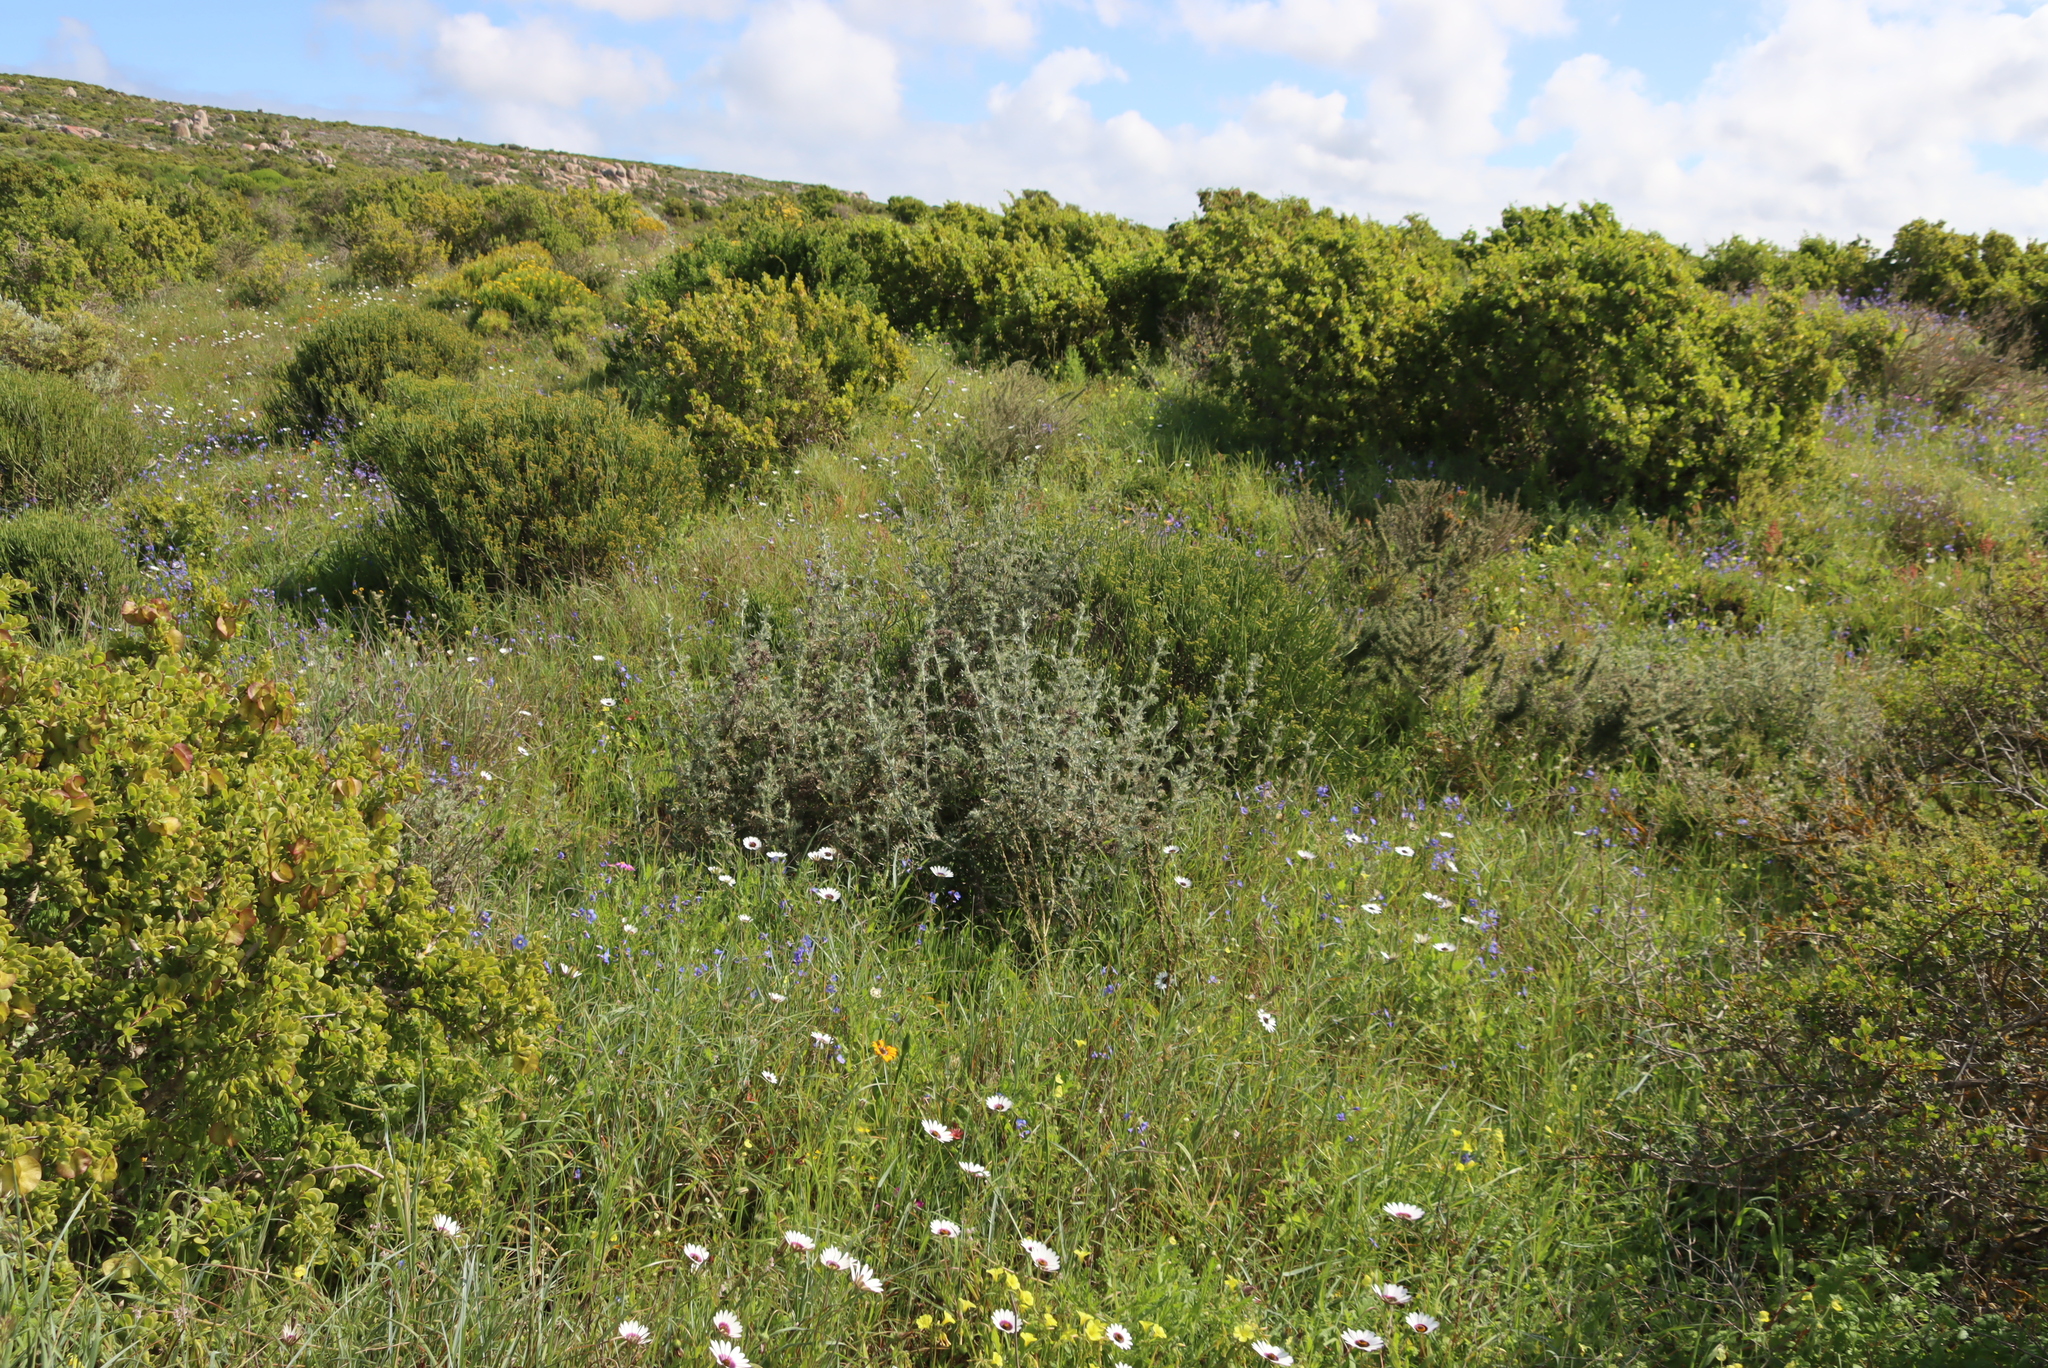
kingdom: Plantae
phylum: Tracheophyta
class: Magnoliopsida
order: Asterales
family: Asteraceae
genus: Berkheya
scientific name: Berkheya rigida
